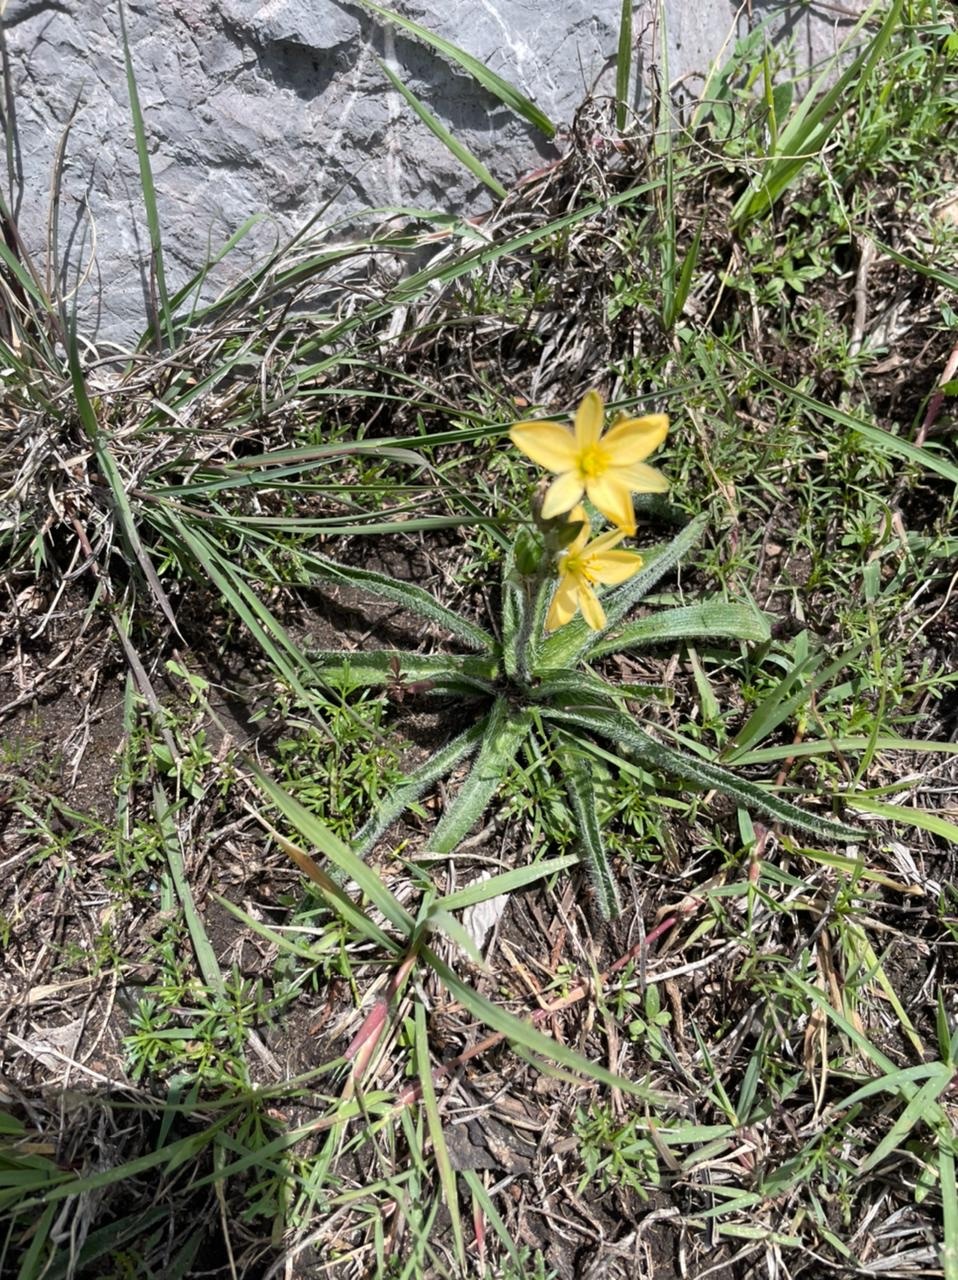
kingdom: Plantae
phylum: Tracheophyta
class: Liliopsida
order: Asparagales
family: Asparagaceae
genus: Echeandia
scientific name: Echeandia vestita
